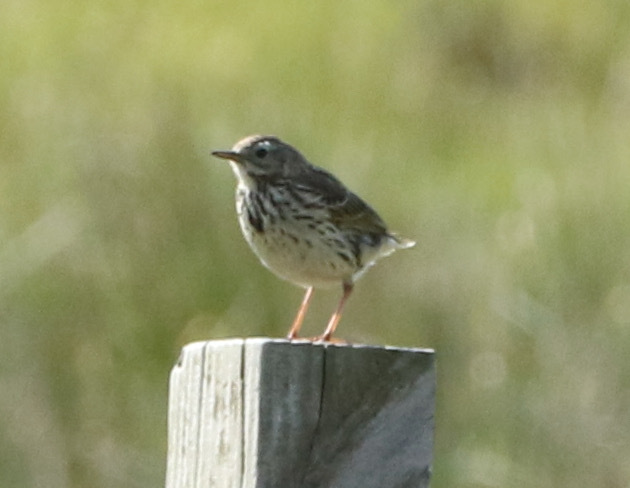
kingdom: Animalia
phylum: Chordata
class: Aves
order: Passeriformes
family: Motacillidae
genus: Anthus
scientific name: Anthus pratensis
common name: Meadow pipit
